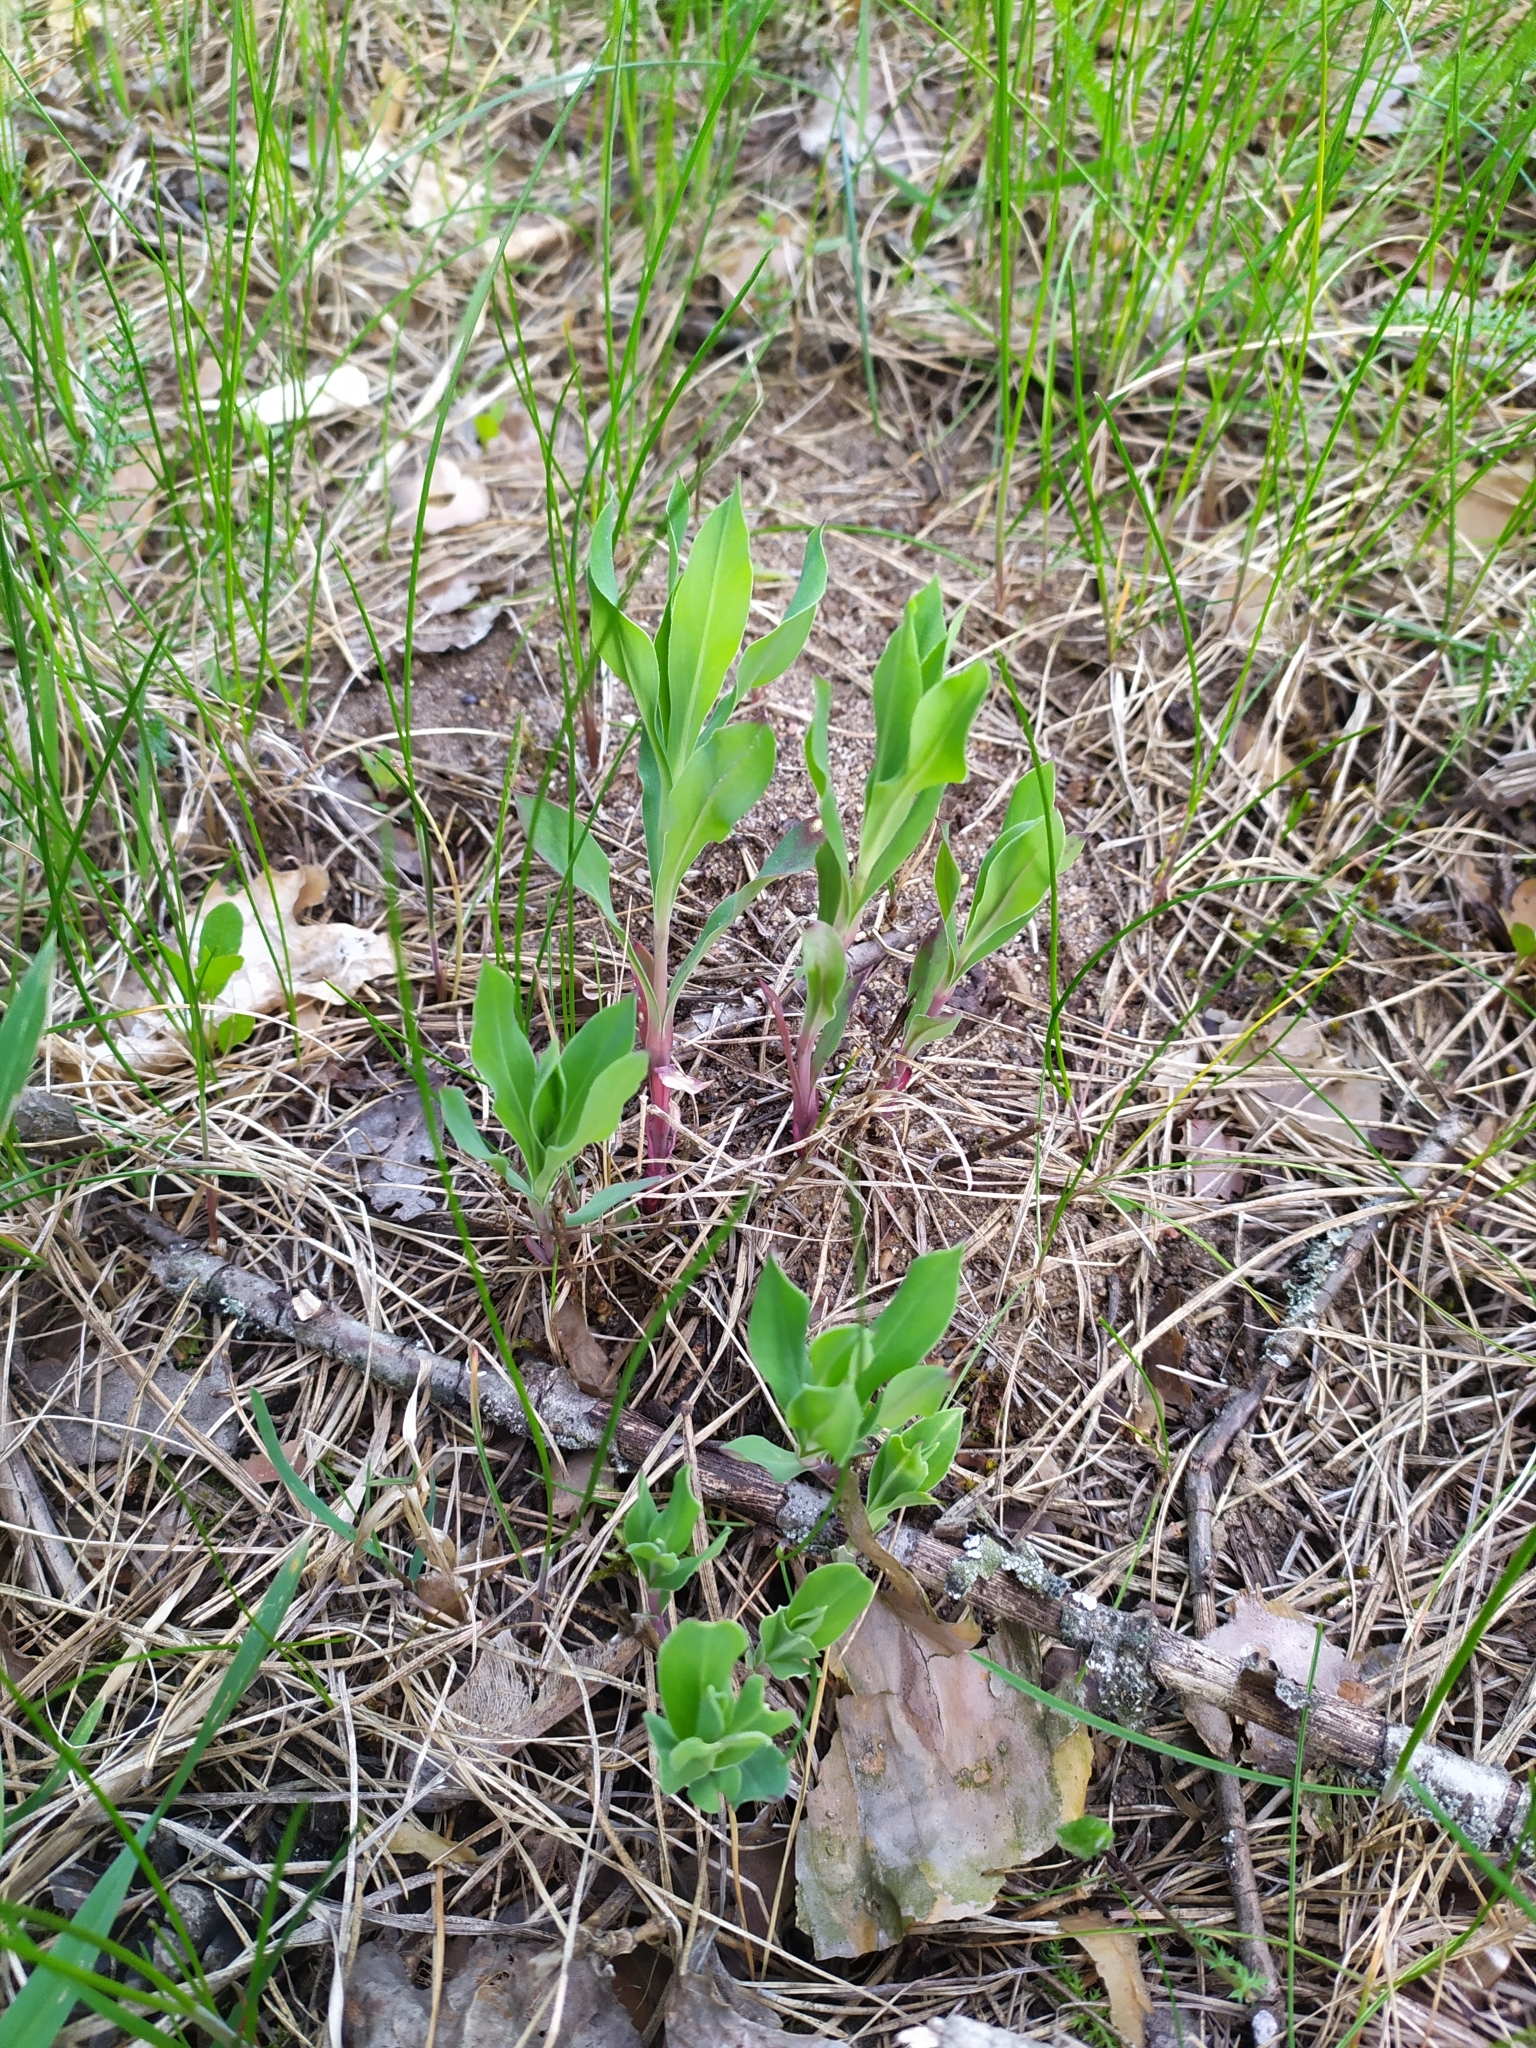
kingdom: Plantae
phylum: Tracheophyta
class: Magnoliopsida
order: Caryophyllales
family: Caryophyllaceae
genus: Silene
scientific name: Silene vulgaris
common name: Bladder campion
